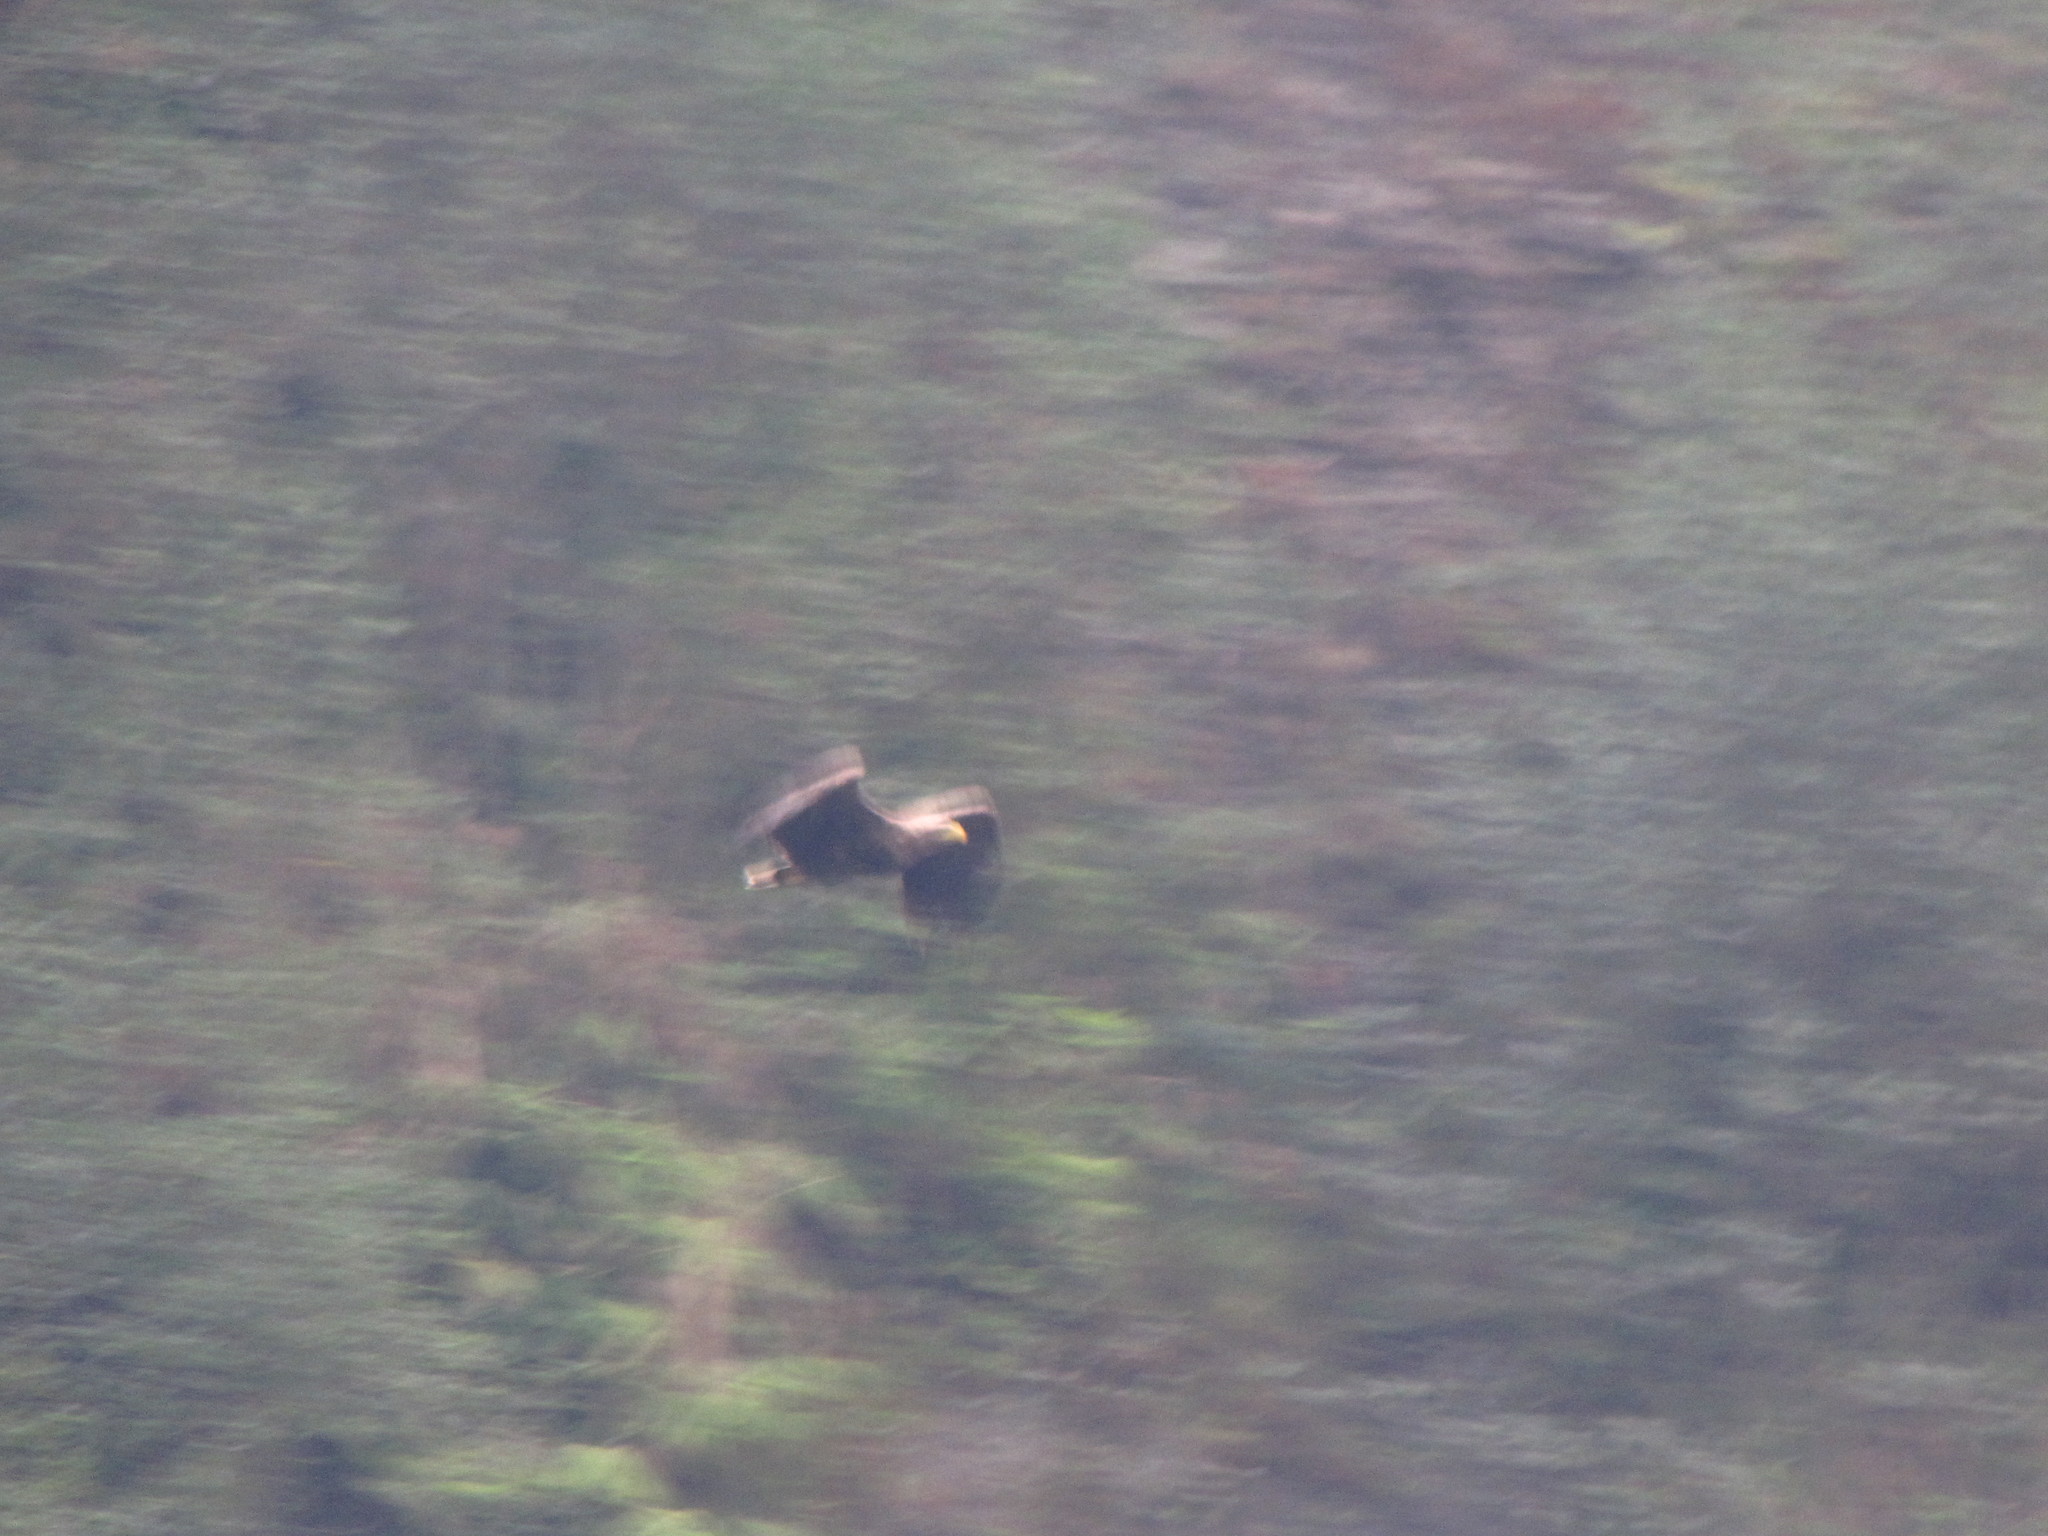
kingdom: Animalia
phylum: Chordata
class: Aves
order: Accipitriformes
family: Accipitridae
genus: Haliaeetus
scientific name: Haliaeetus albicilla
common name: White-tailed eagle
